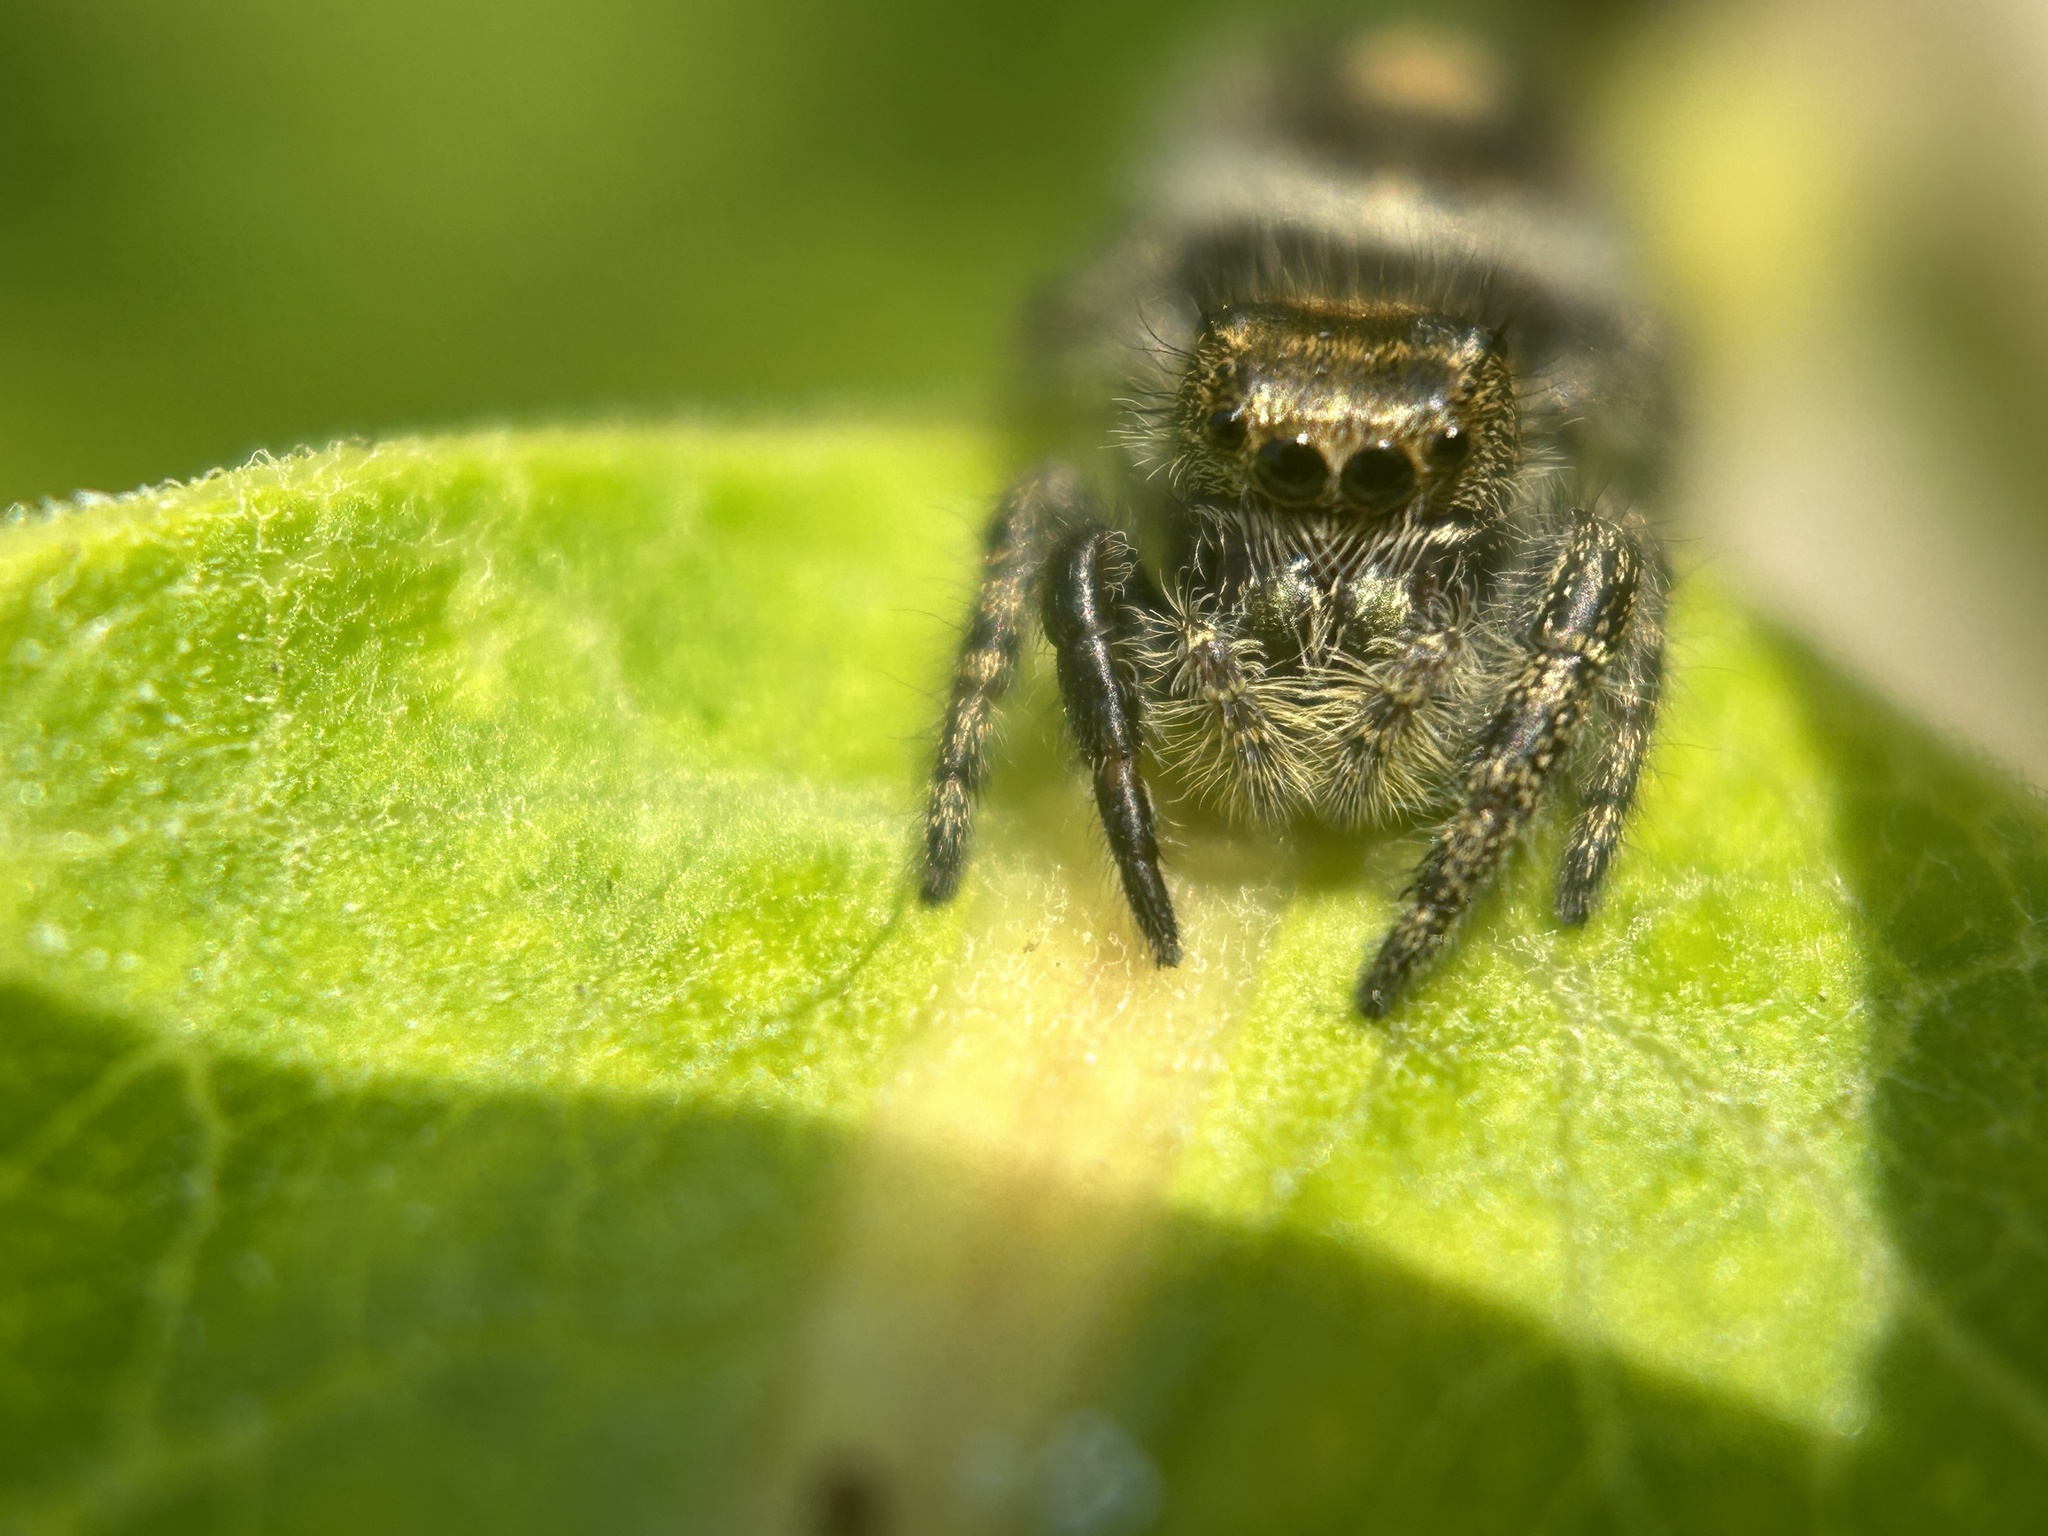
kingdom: Animalia
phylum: Arthropoda
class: Arachnida
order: Araneae
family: Salticidae
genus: Phidippus
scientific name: Phidippus audax
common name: Bold jumper
